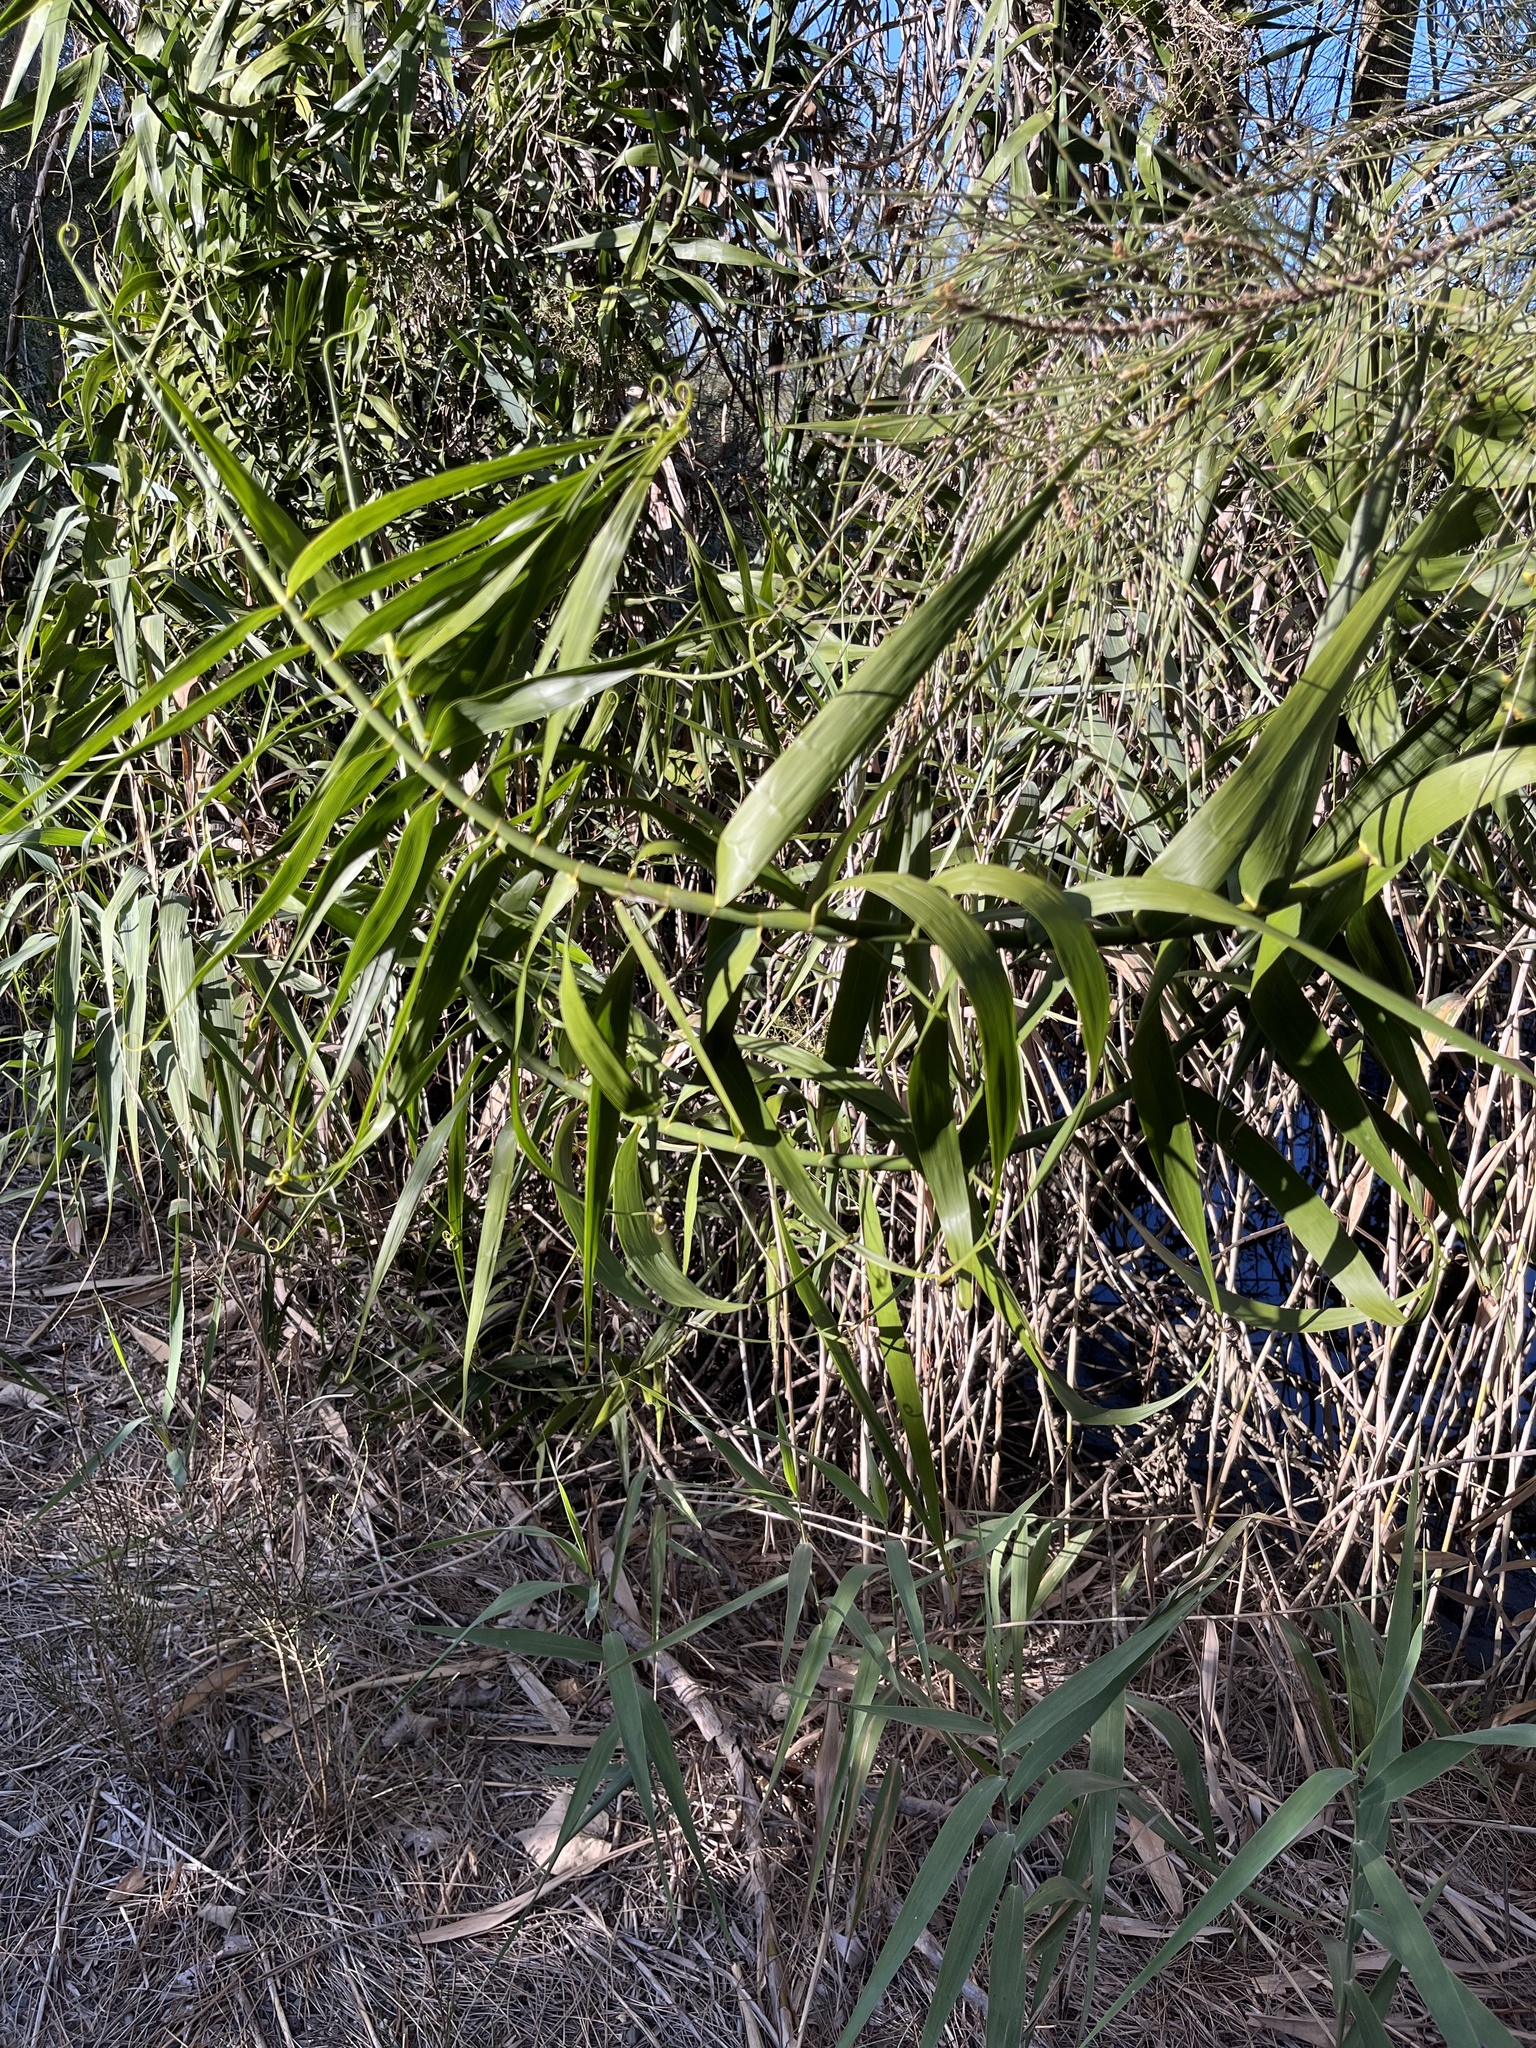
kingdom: Plantae
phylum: Tracheophyta
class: Liliopsida
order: Poales
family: Flagellariaceae
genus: Flagellaria
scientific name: Flagellaria indica
